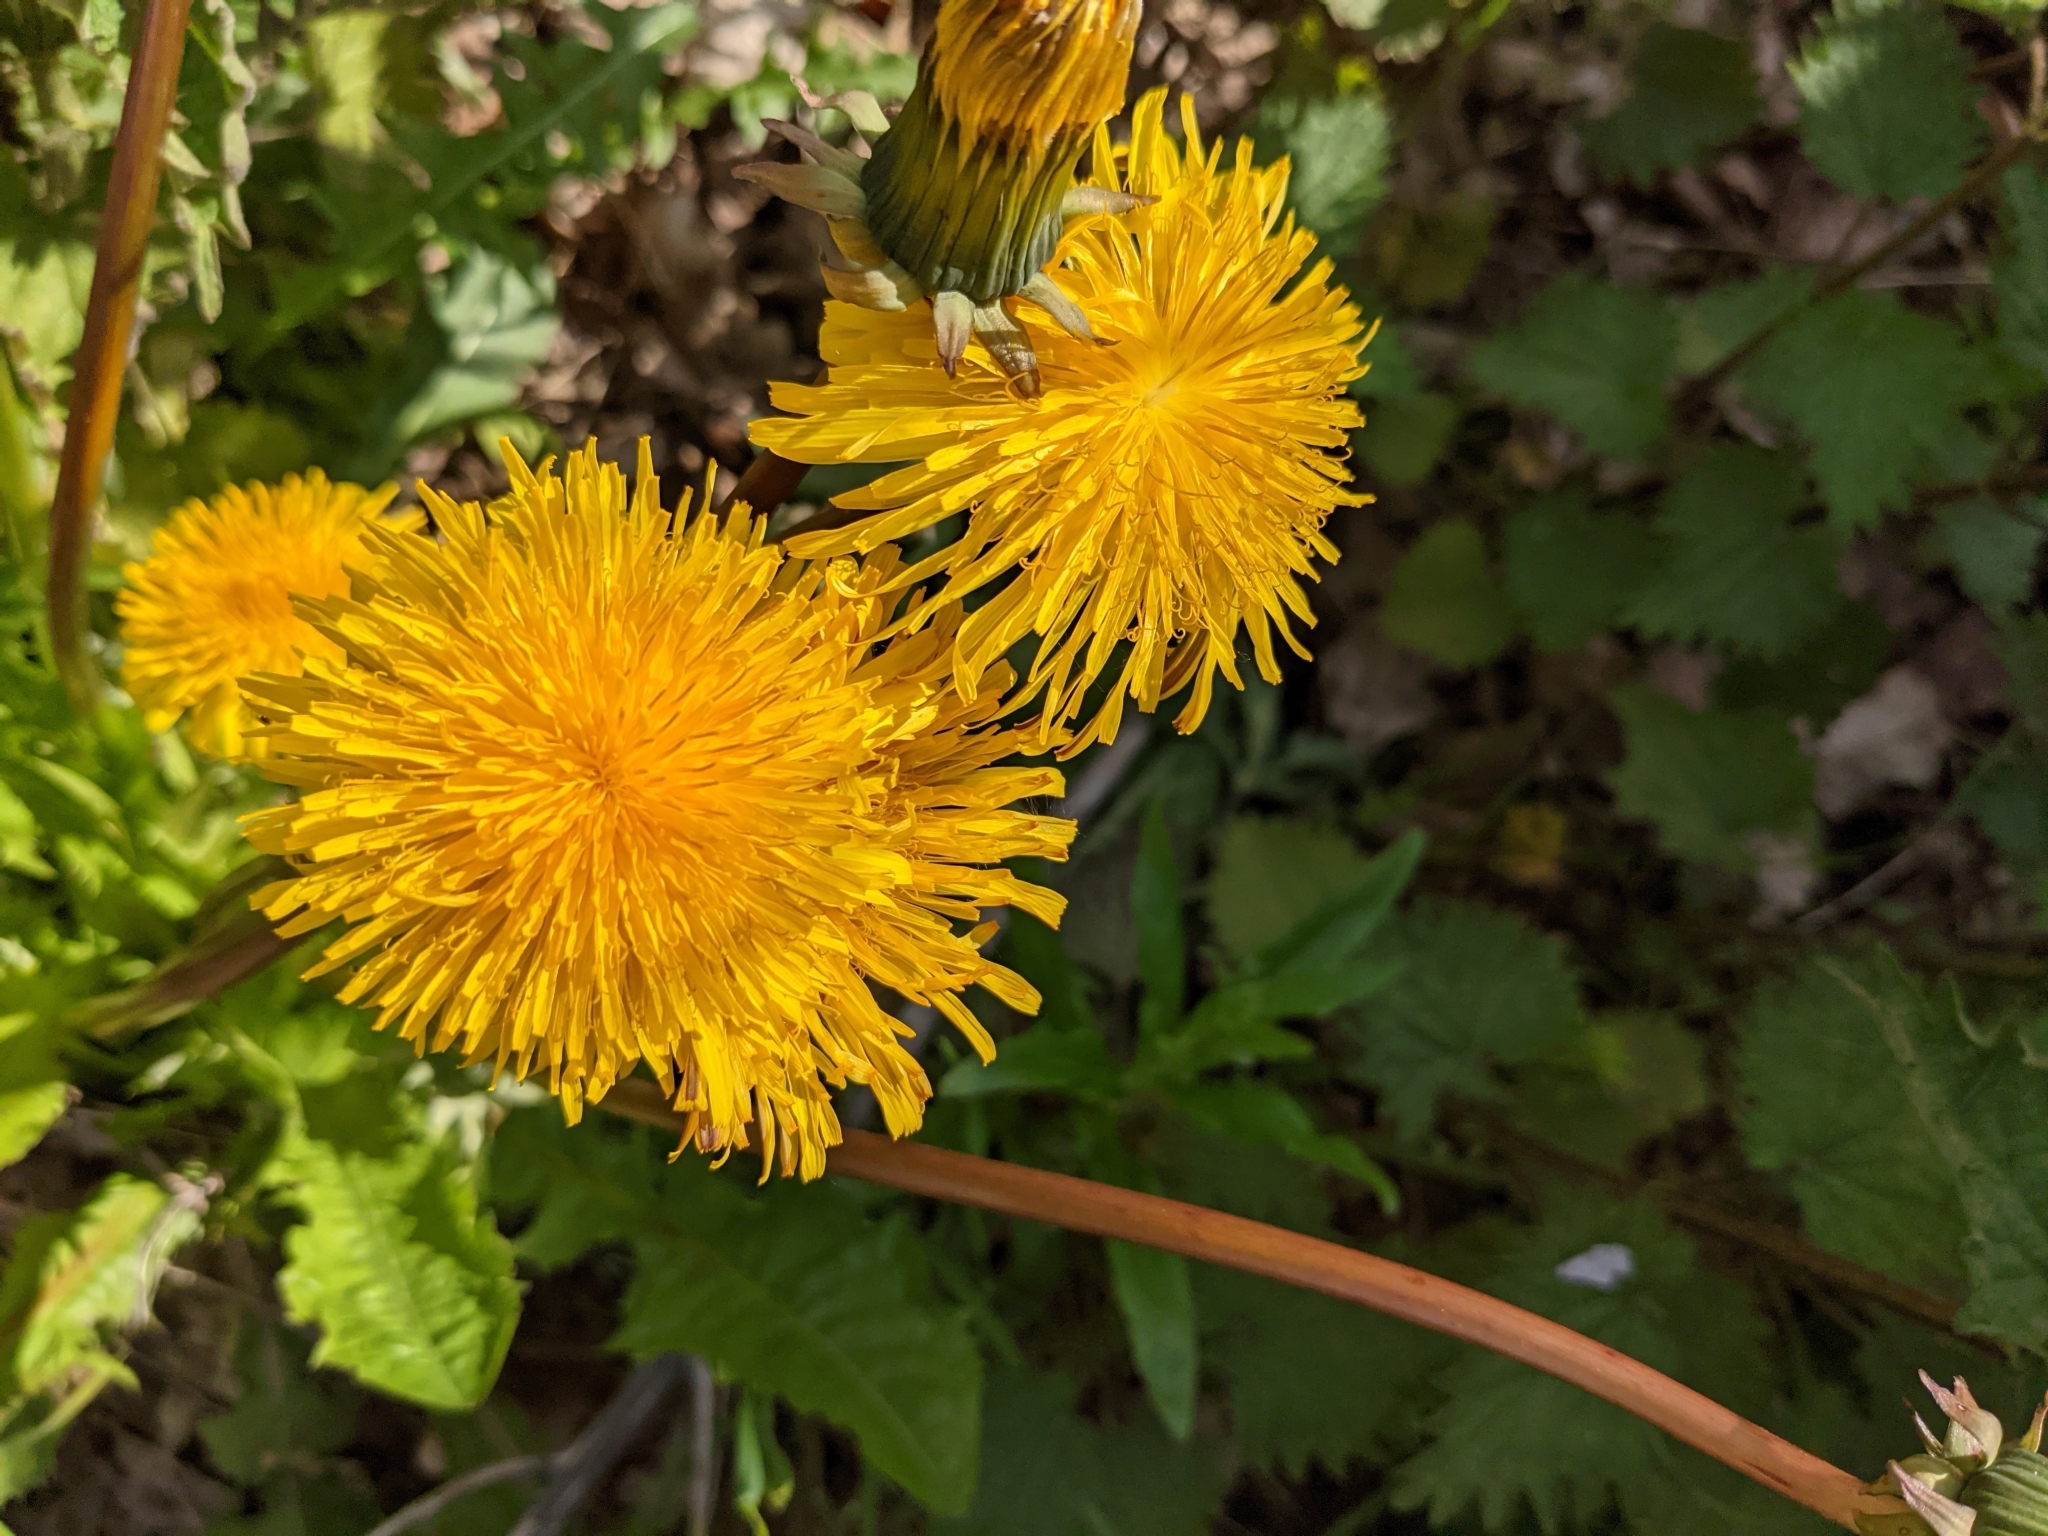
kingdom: Plantae
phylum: Tracheophyta
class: Magnoliopsida
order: Asterales
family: Asteraceae
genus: Taraxacum
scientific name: Taraxacum officinale
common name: Common dandelion
